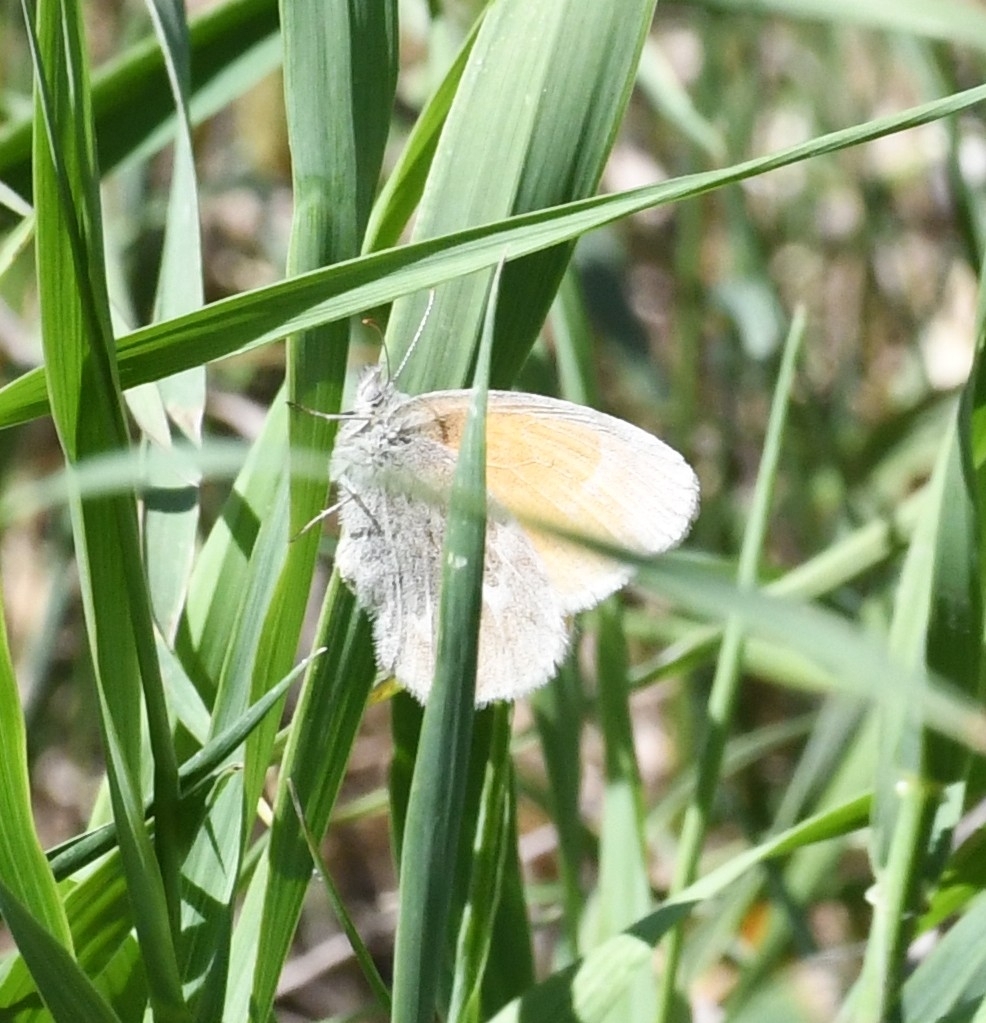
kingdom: Animalia
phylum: Arthropoda
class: Insecta
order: Lepidoptera
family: Nymphalidae
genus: Coenonympha
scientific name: Coenonympha california
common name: Common ringlet
